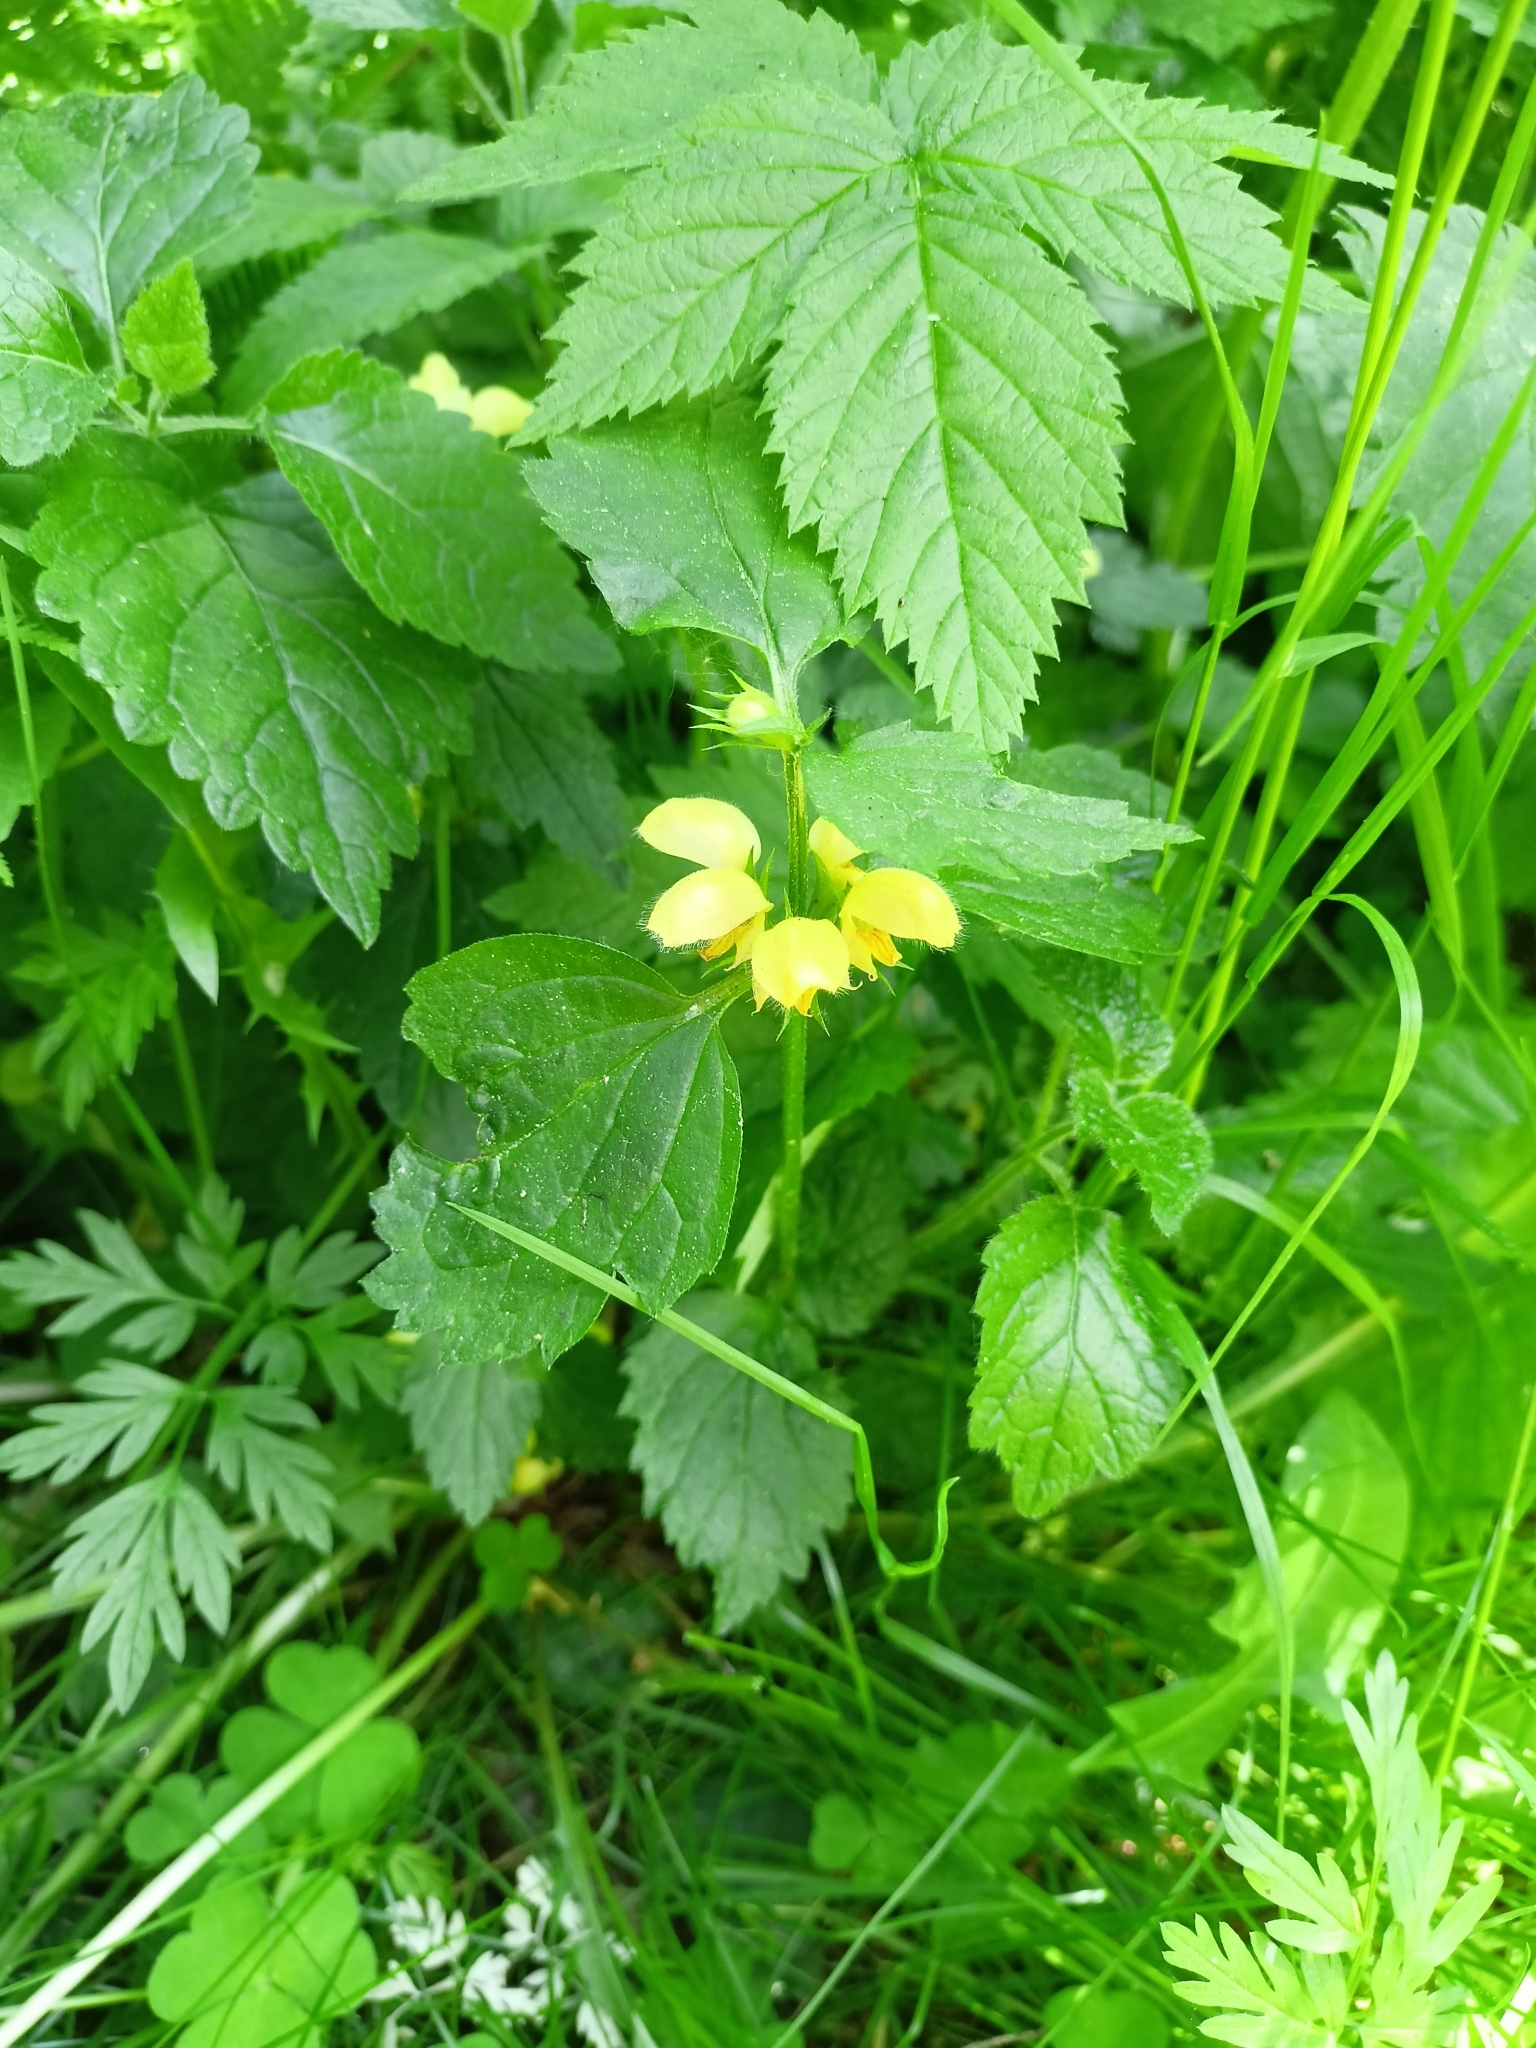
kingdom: Plantae
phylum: Tracheophyta
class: Magnoliopsida
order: Lamiales
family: Lamiaceae
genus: Lamium
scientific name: Lamium galeobdolon
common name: Yellow archangel
